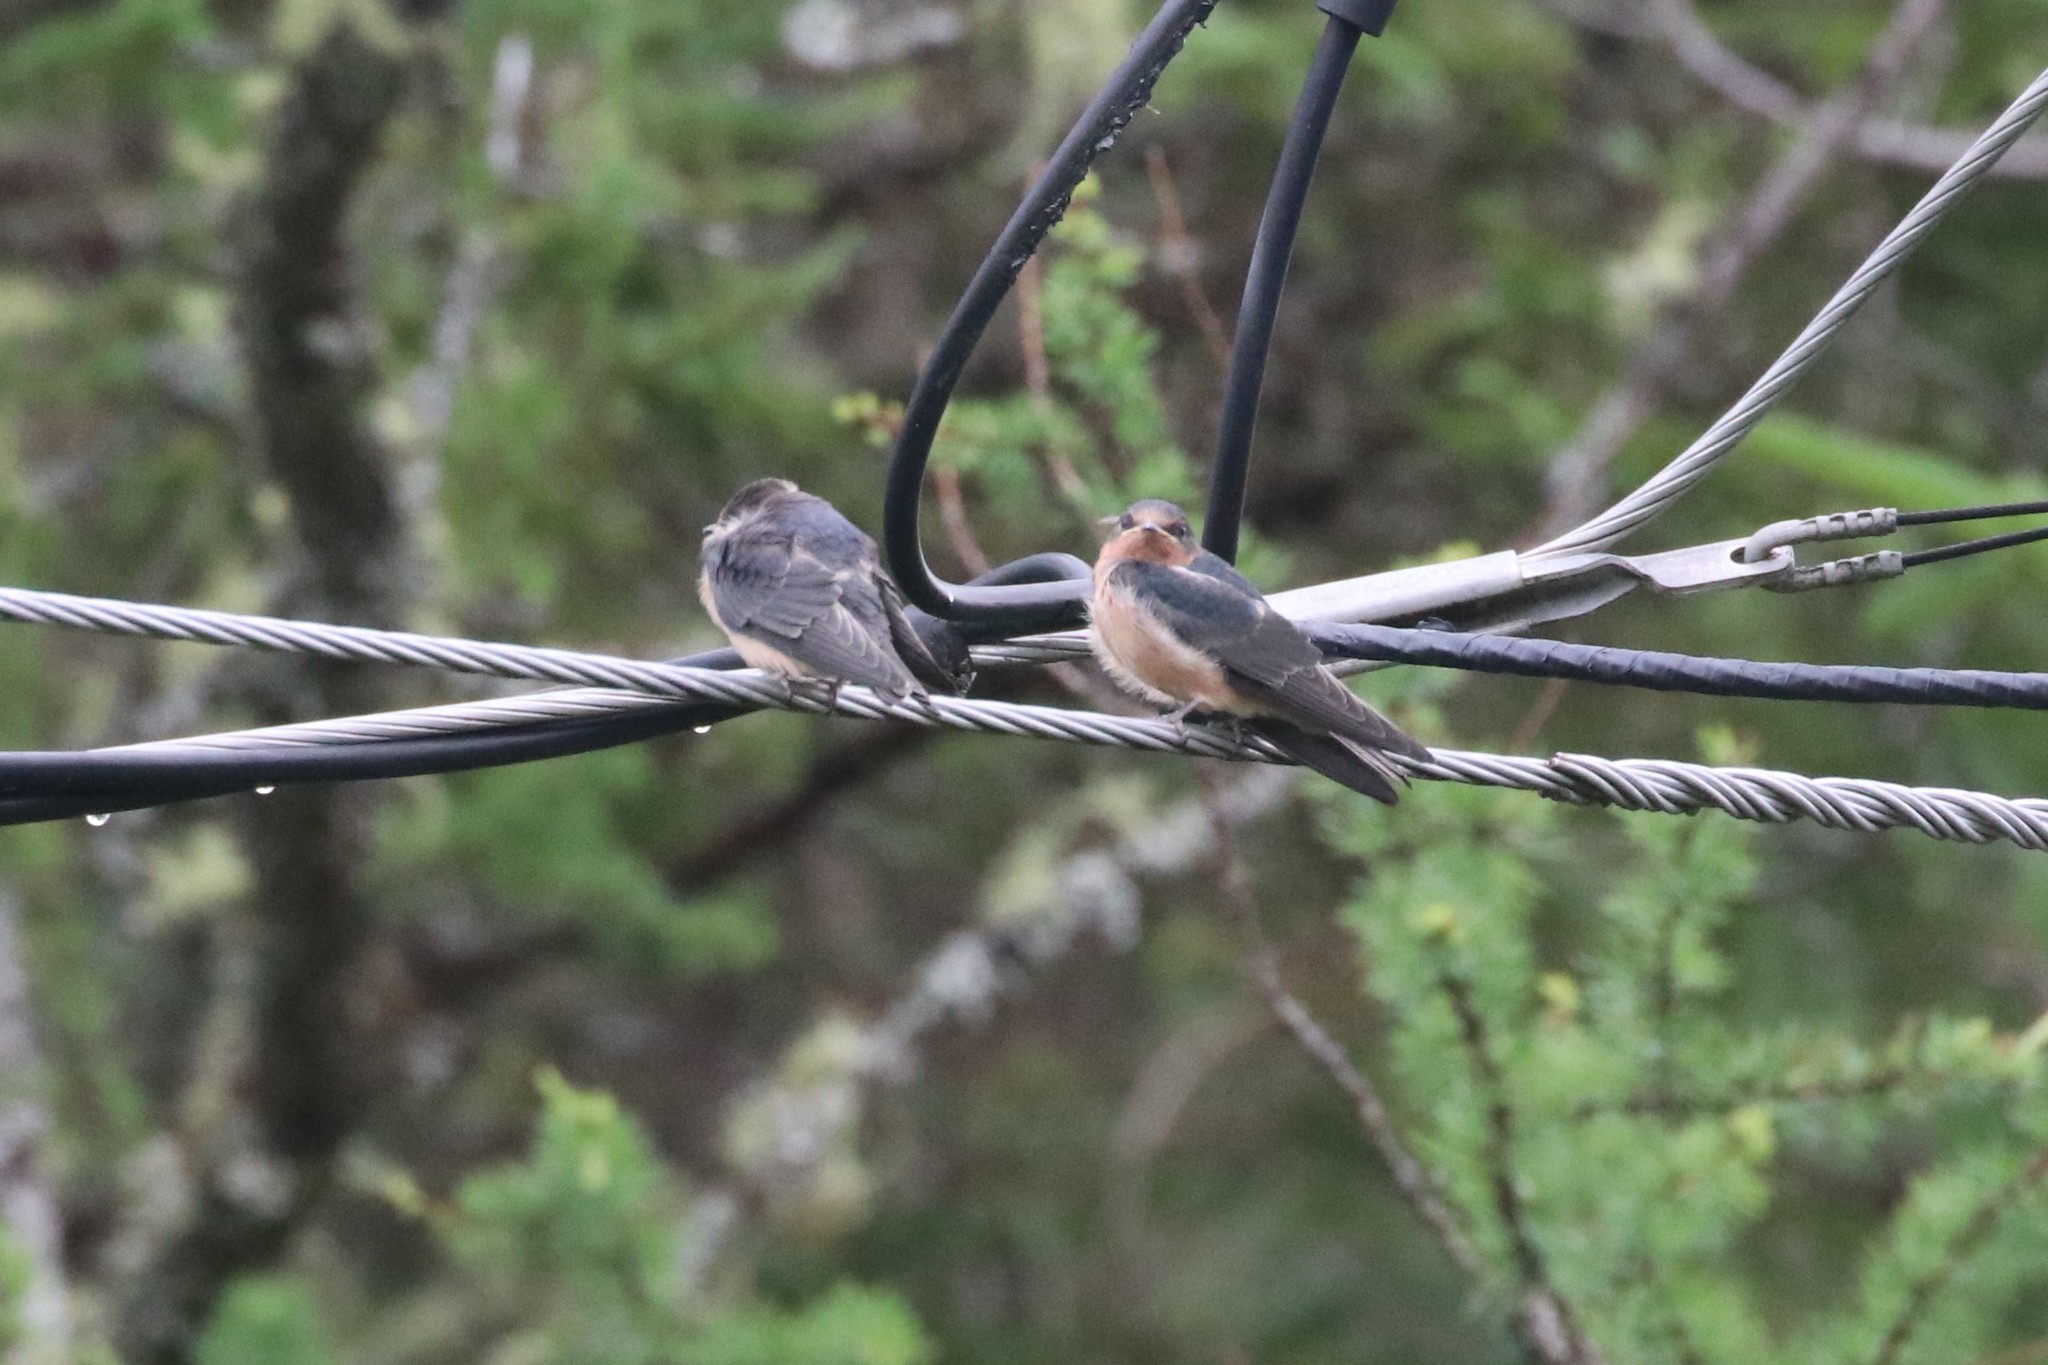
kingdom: Animalia
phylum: Chordata
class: Aves
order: Passeriformes
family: Hirundinidae
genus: Hirundo
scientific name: Hirundo rustica
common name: Barn swallow
